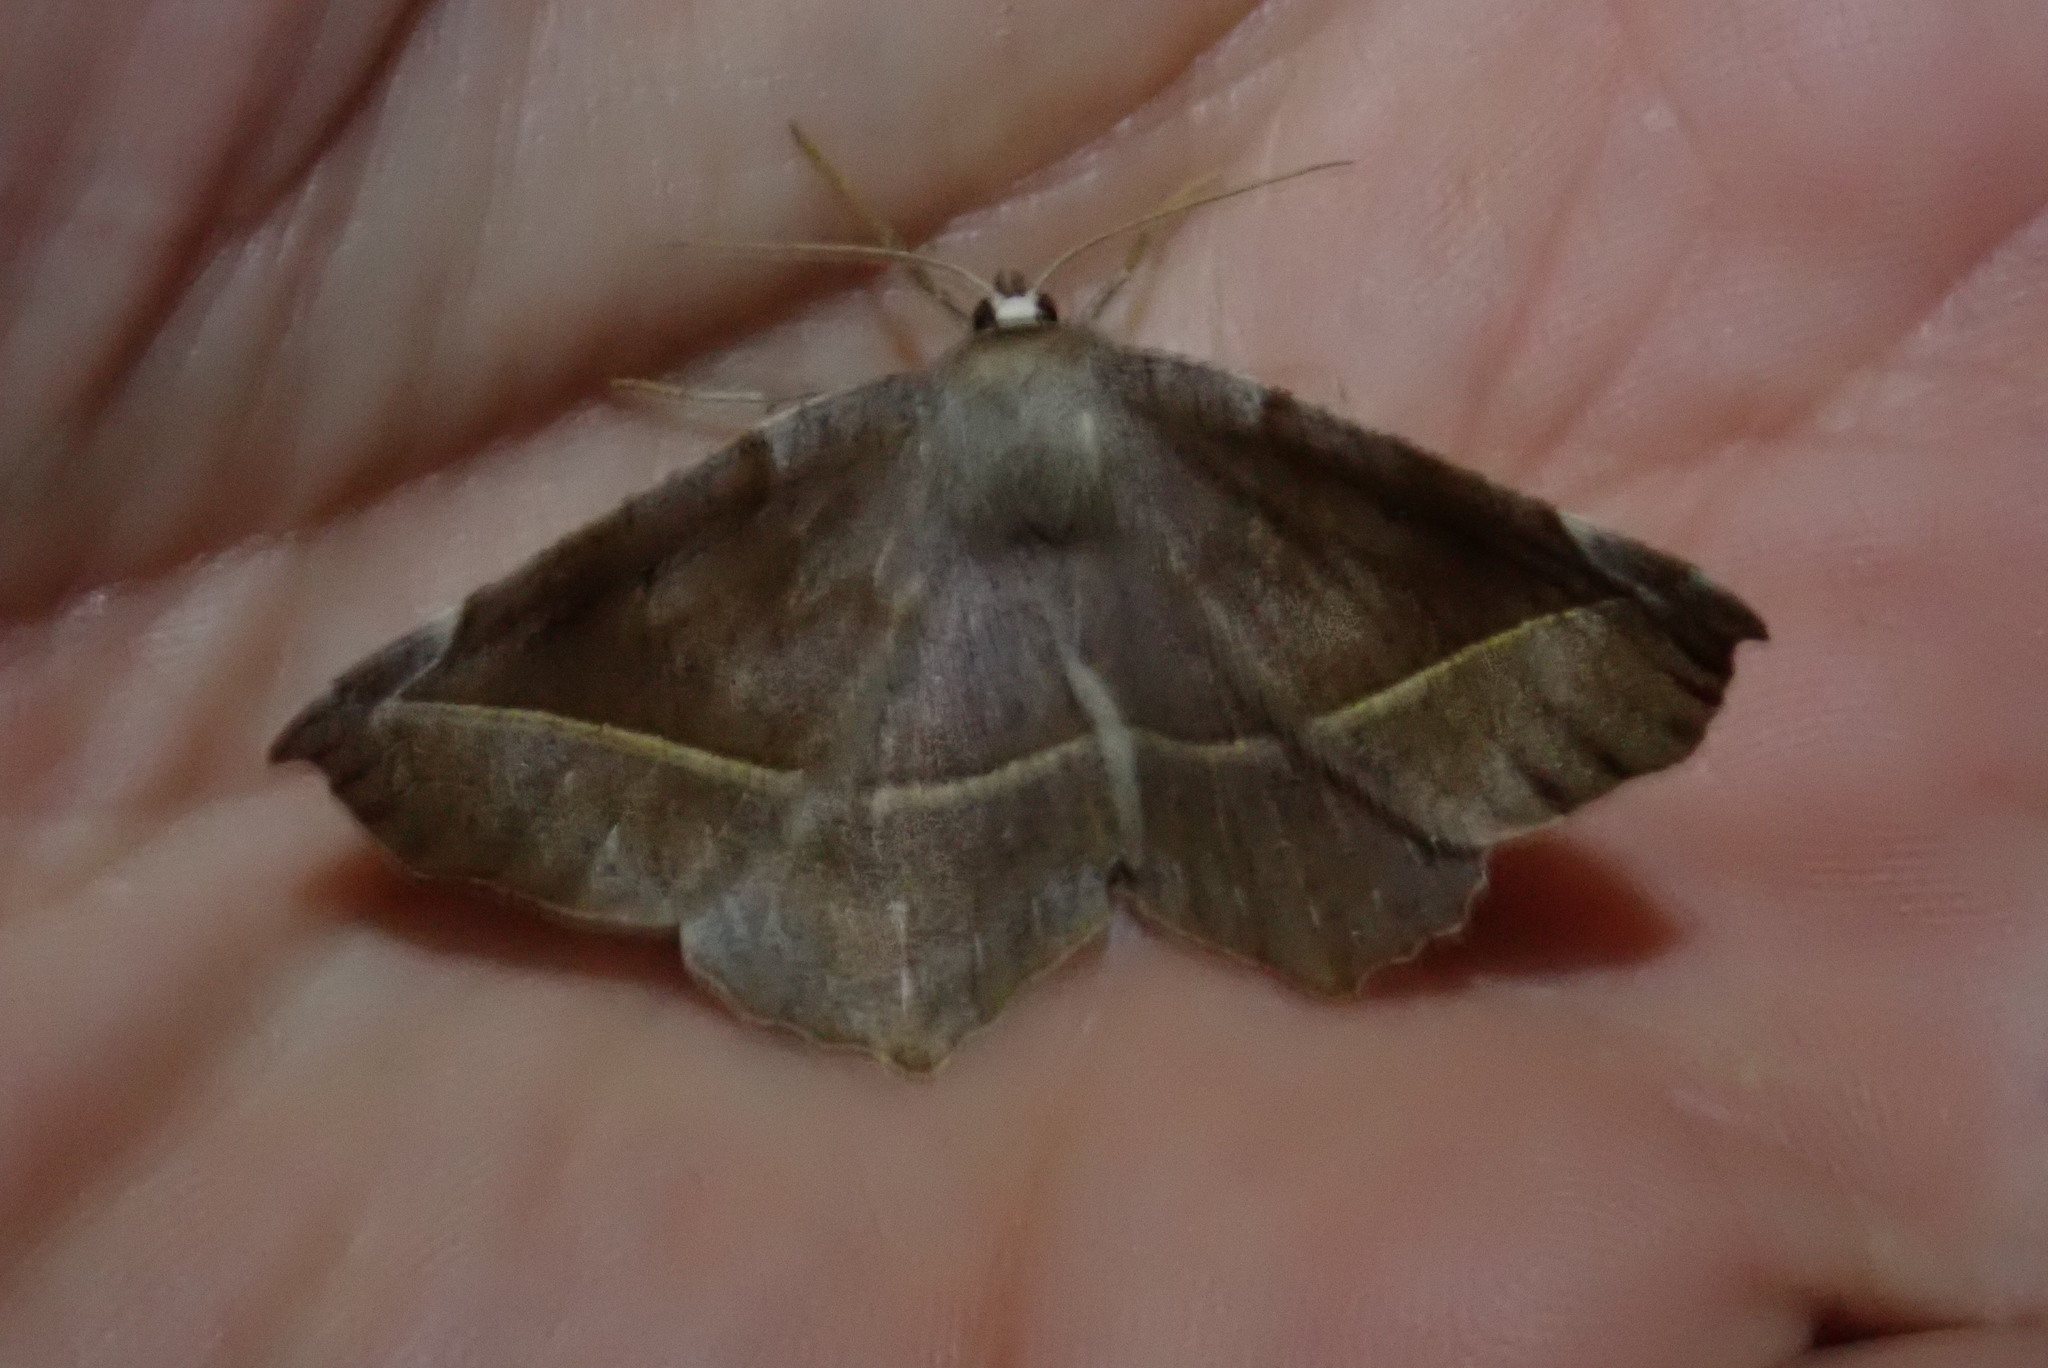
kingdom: Animalia
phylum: Arthropoda
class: Insecta
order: Lepidoptera
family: Geometridae
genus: Eutrapela
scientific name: Eutrapela clemataria
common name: Curved-toothed geometer
